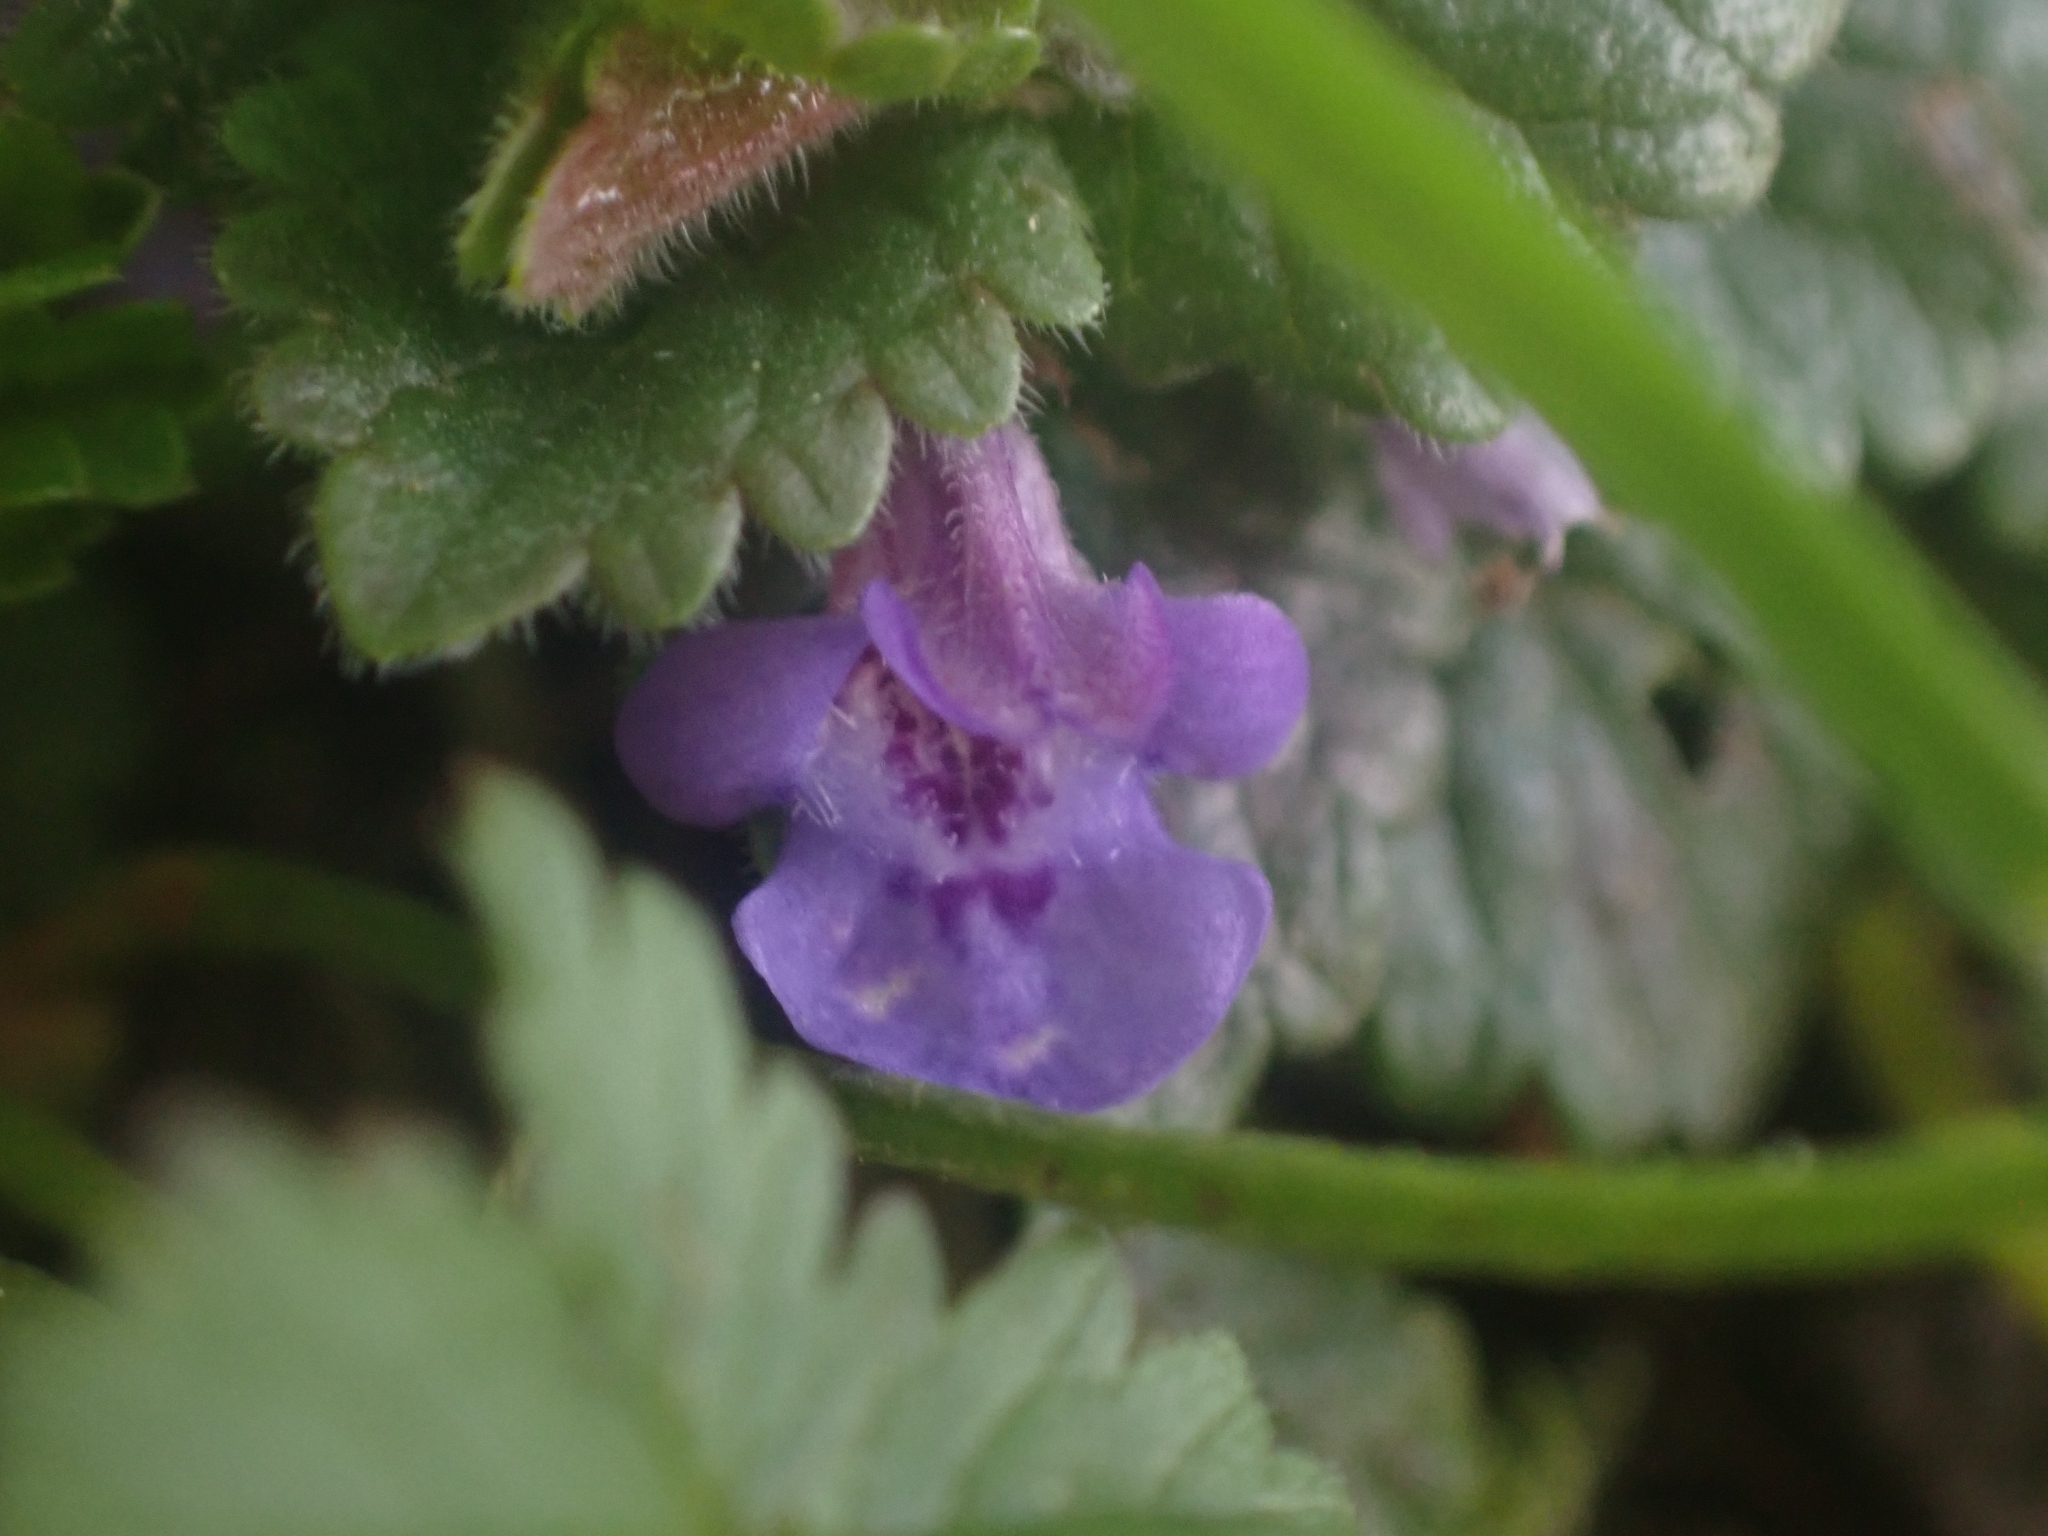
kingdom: Plantae
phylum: Tracheophyta
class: Magnoliopsida
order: Lamiales
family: Lamiaceae
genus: Glechoma
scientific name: Glechoma hederacea
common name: Ground ivy
